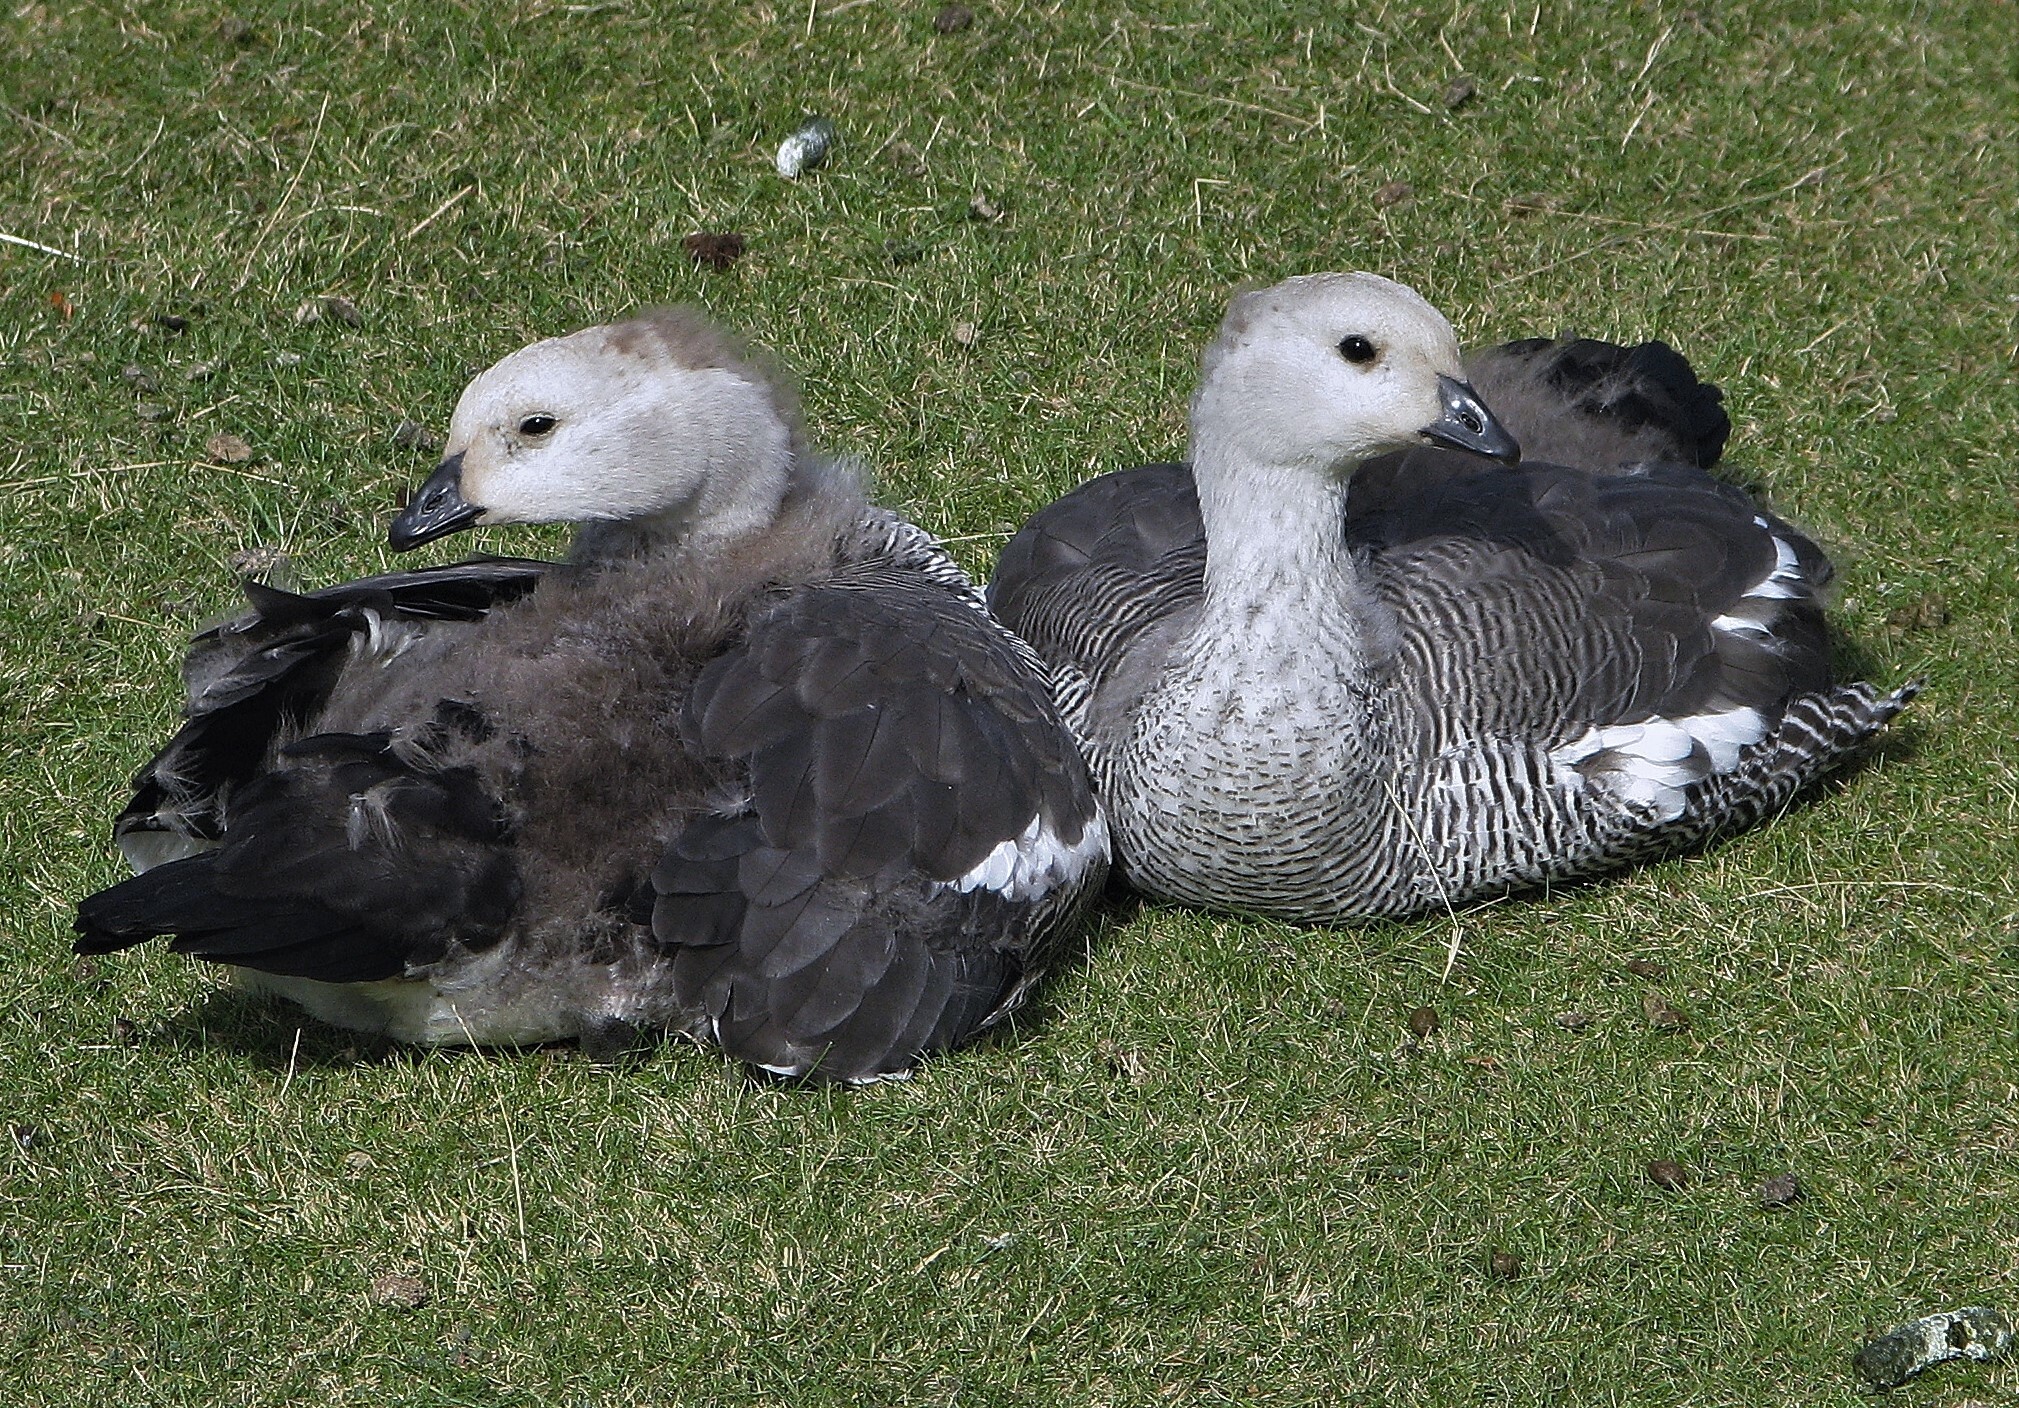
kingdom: Animalia
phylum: Chordata
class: Aves
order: Anseriformes
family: Anatidae
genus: Chloephaga
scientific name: Chloephaga picta
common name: Upland goose
